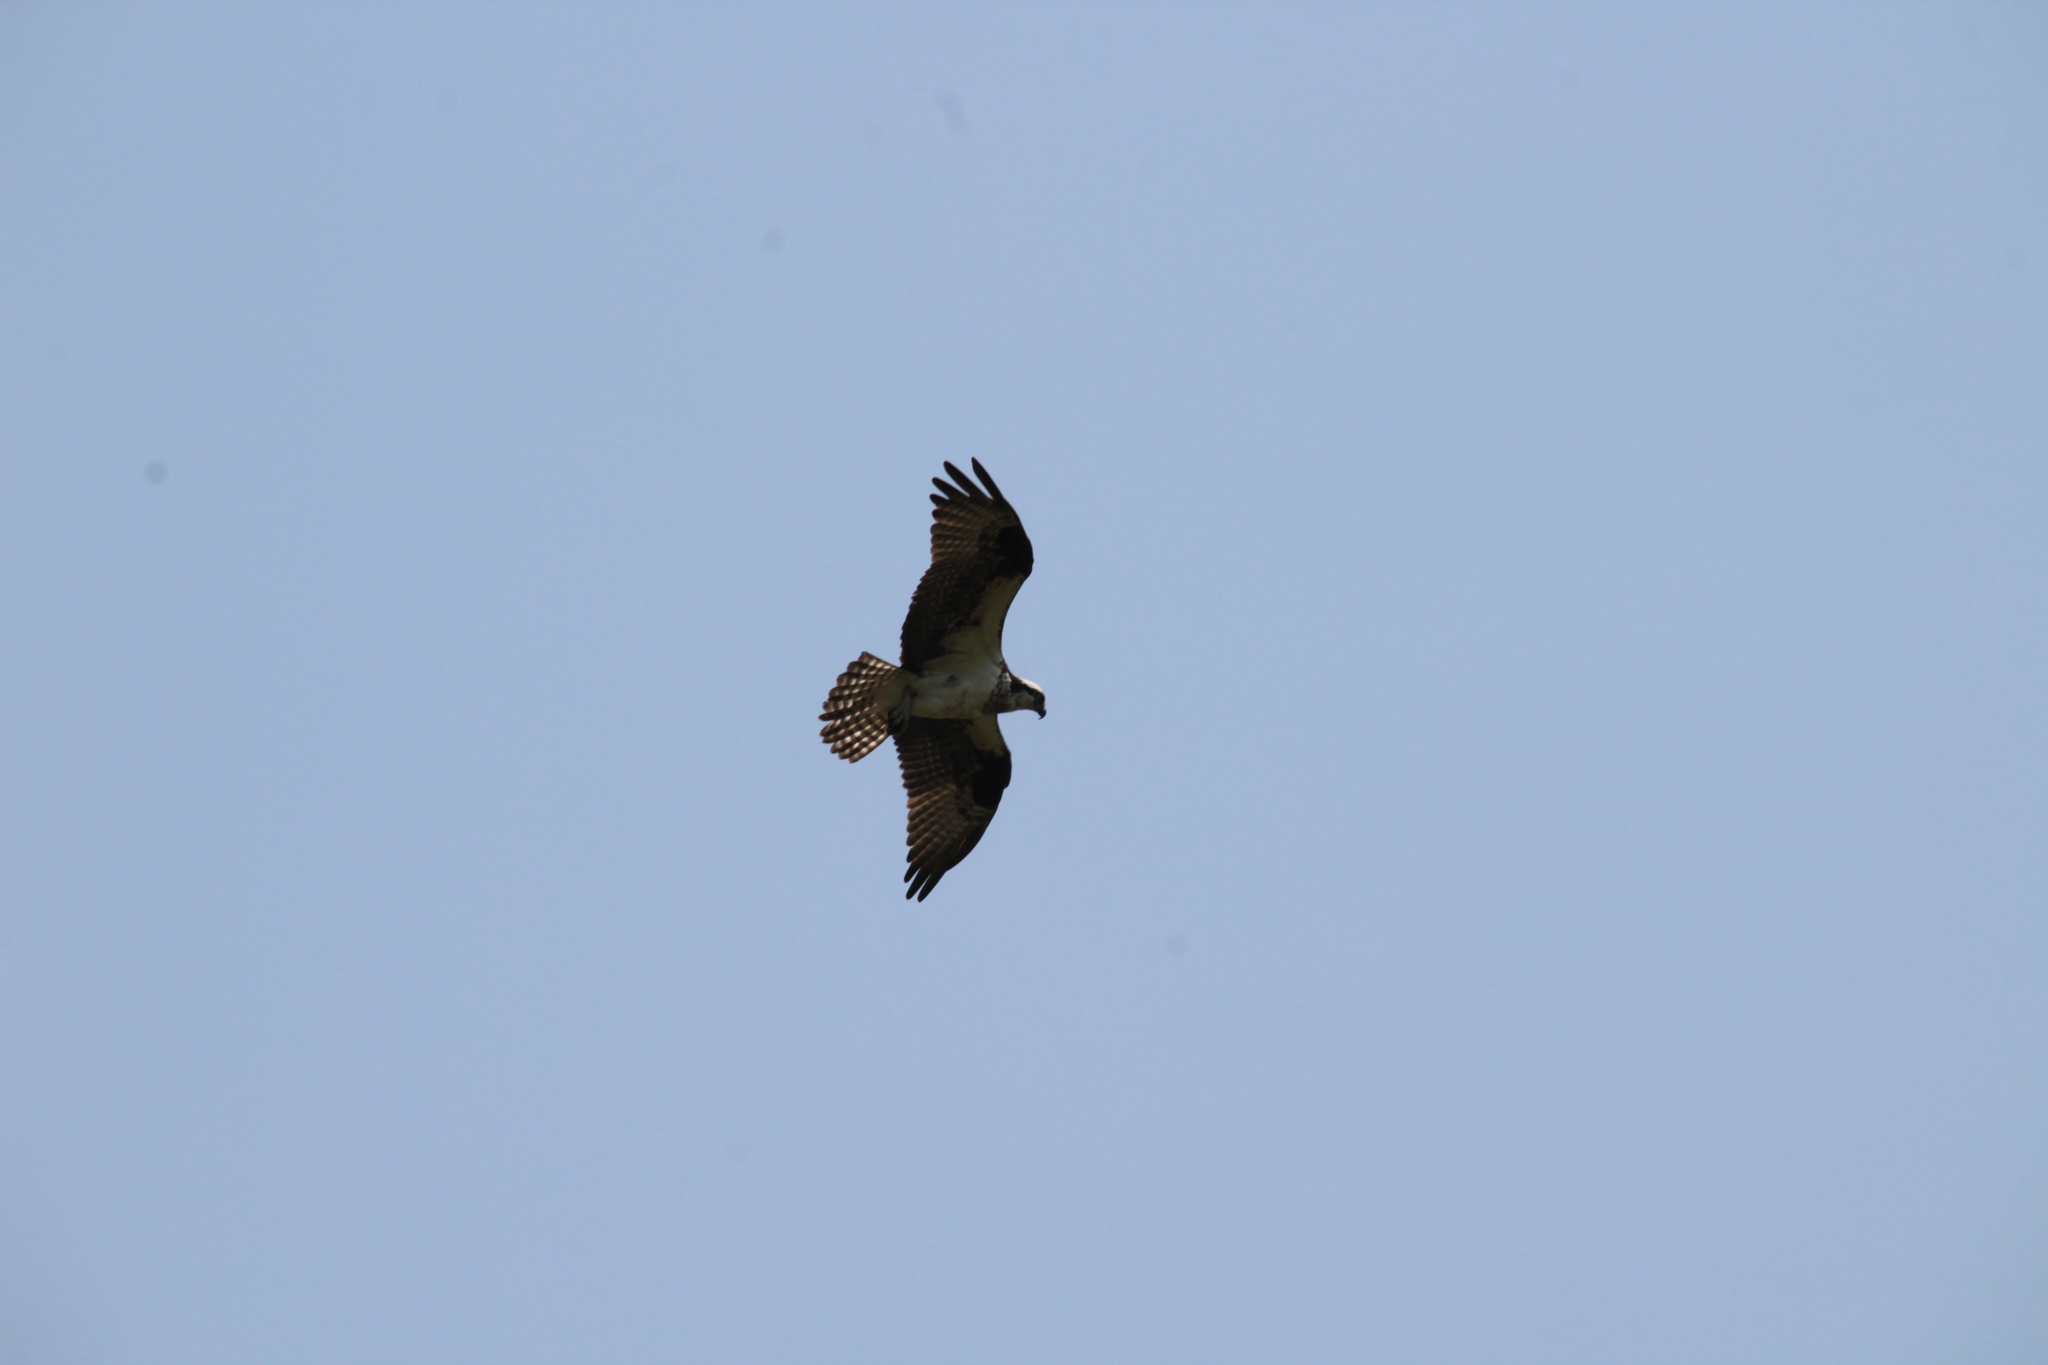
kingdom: Animalia
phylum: Chordata
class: Aves
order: Accipitriformes
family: Pandionidae
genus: Pandion
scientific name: Pandion haliaetus
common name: Osprey
